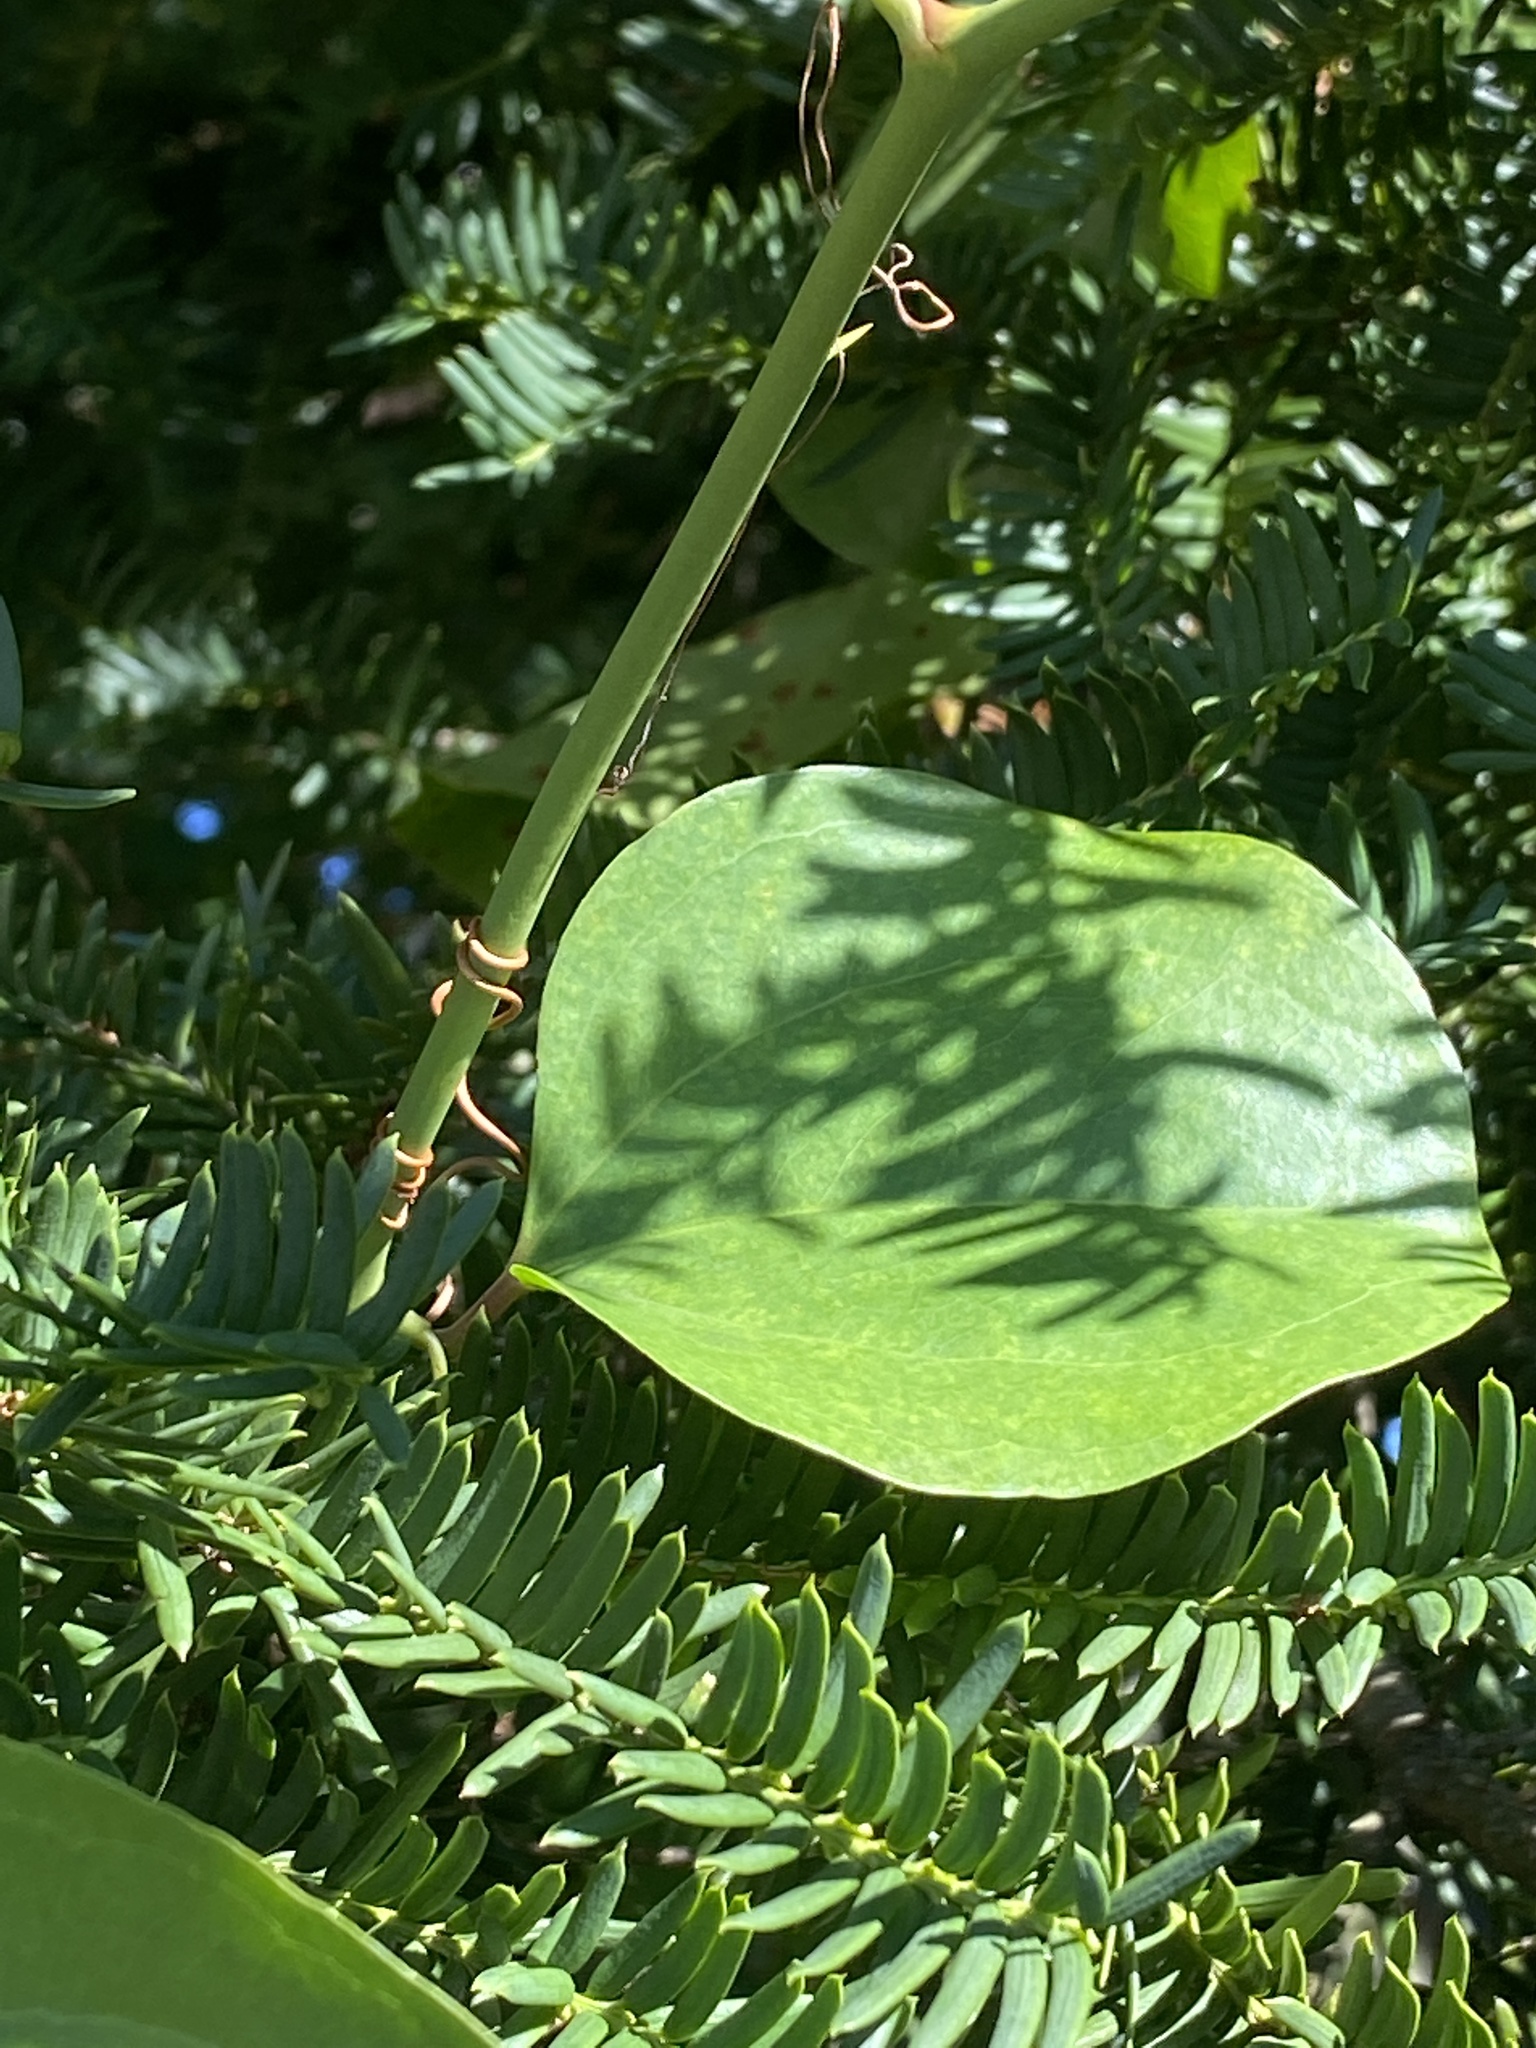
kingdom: Plantae
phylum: Tracheophyta
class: Liliopsida
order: Liliales
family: Smilacaceae
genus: Smilax
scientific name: Smilax rotundifolia
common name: Bullbriar
